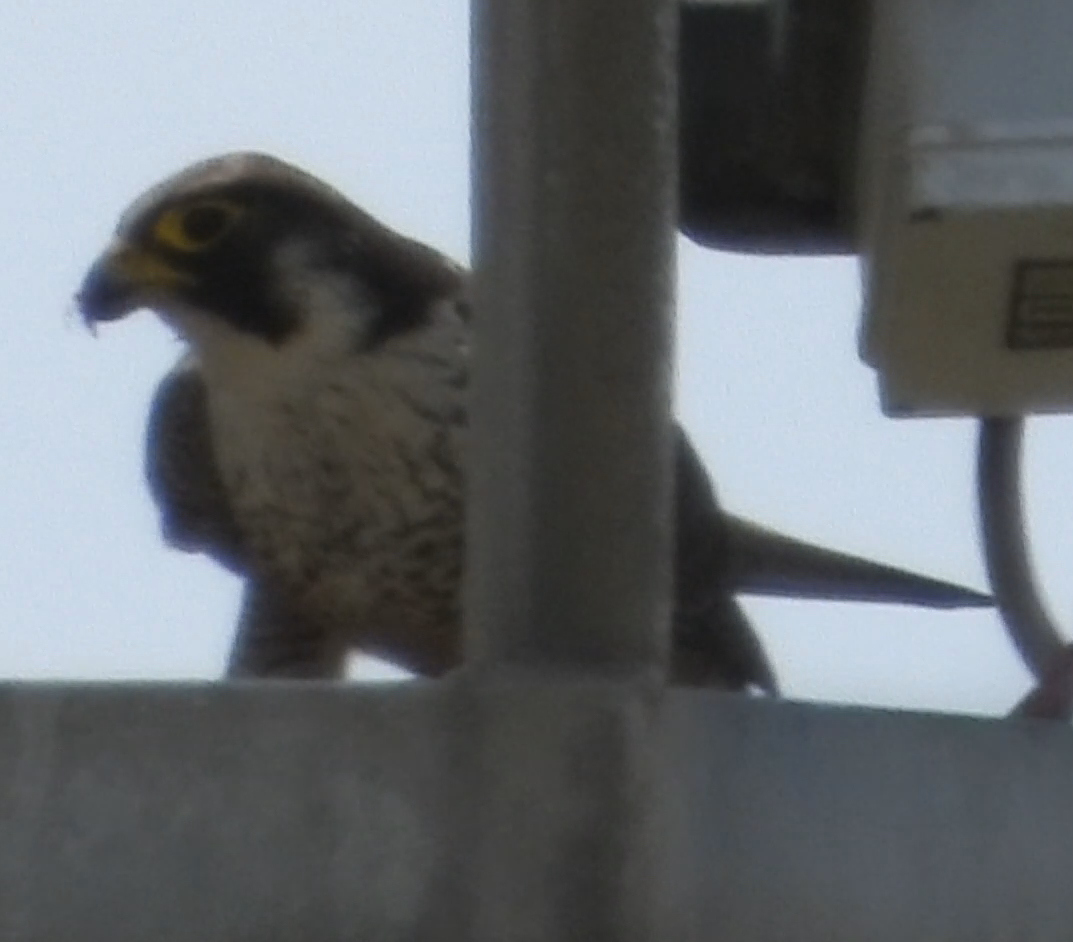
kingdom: Animalia
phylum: Chordata
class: Aves
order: Falconiformes
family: Falconidae
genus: Falco
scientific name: Falco peregrinus
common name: Peregrine falcon
